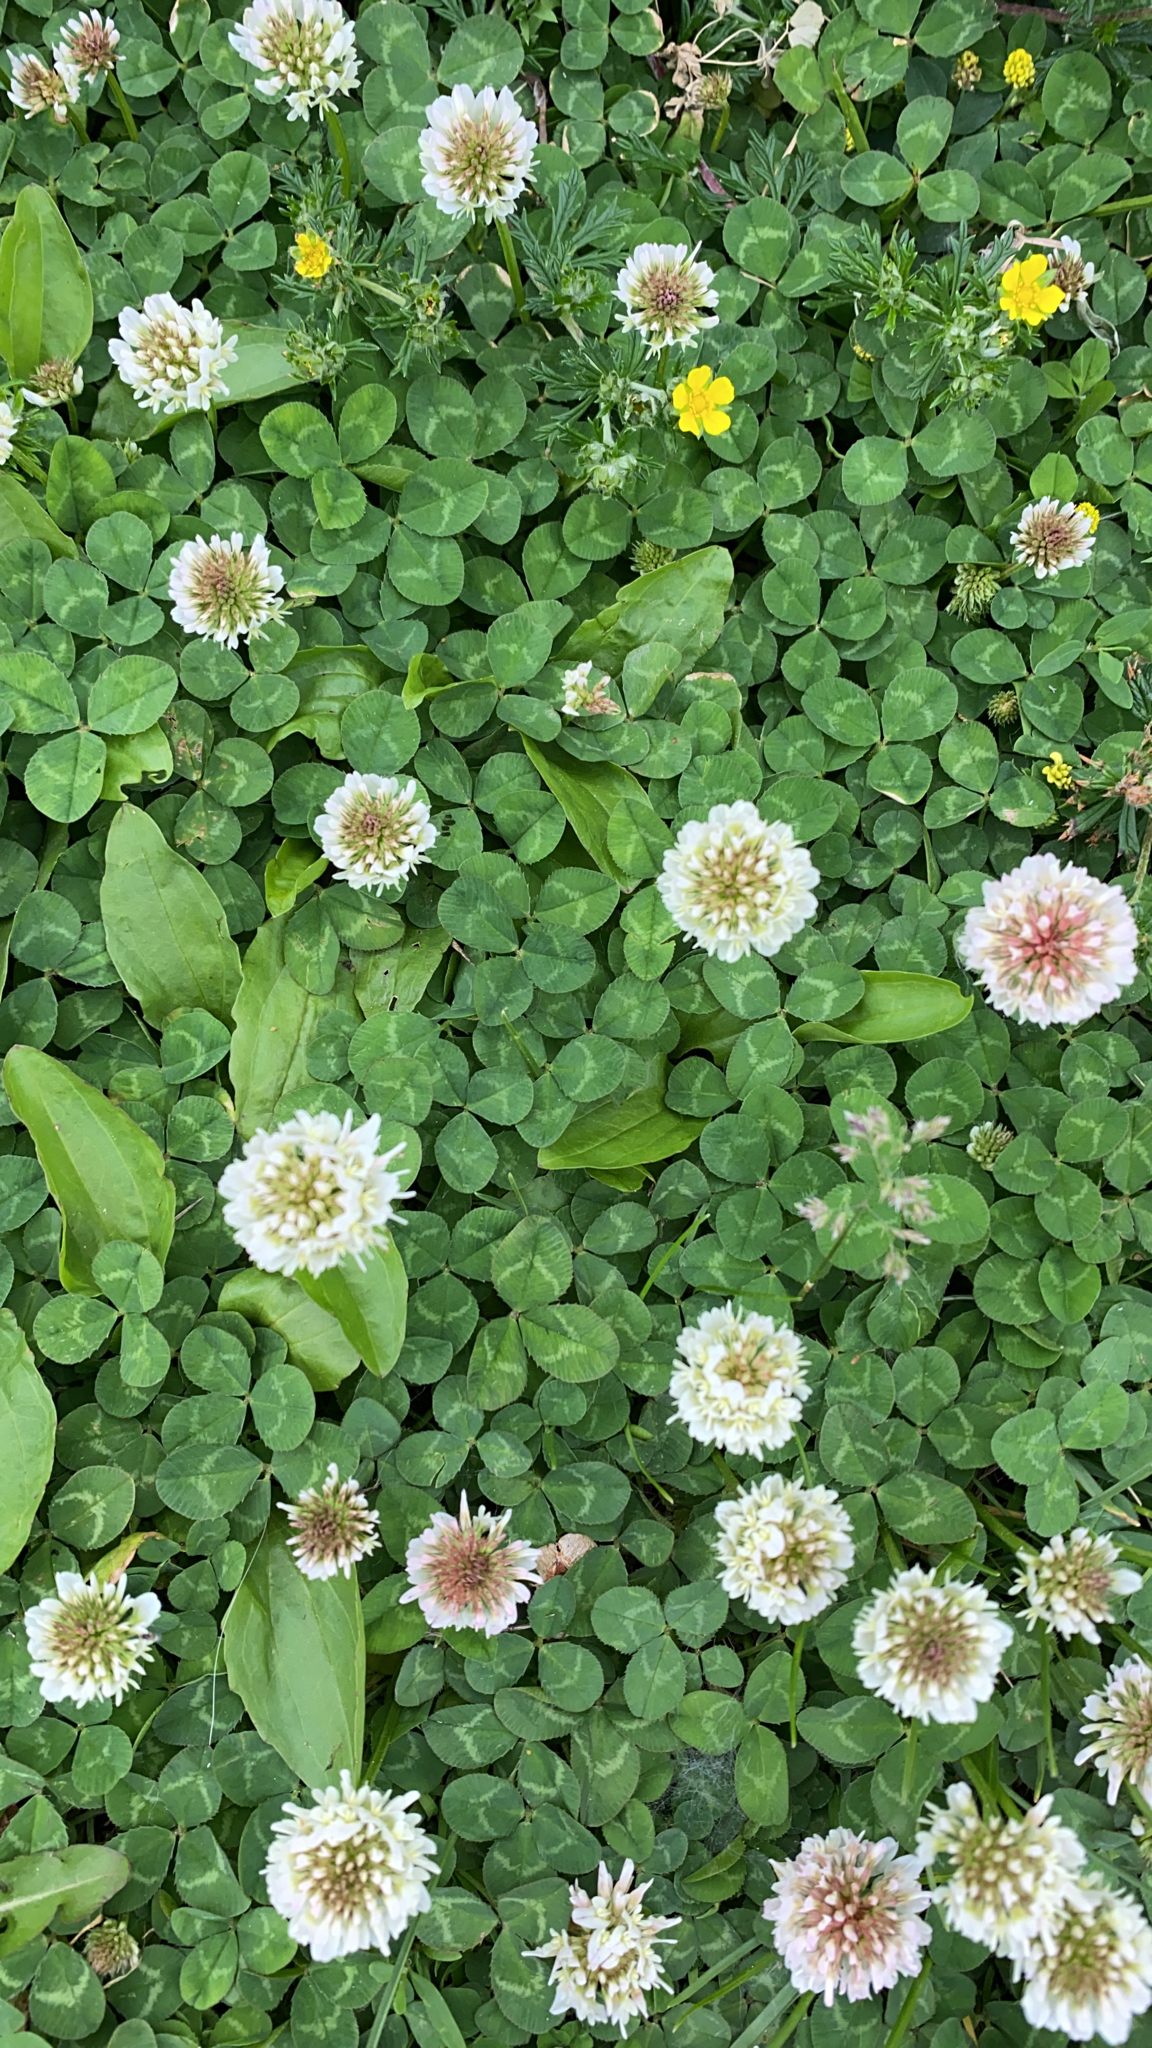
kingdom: Plantae
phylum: Tracheophyta
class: Magnoliopsida
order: Fabales
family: Fabaceae
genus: Trifolium
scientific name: Trifolium repens
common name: White clover
